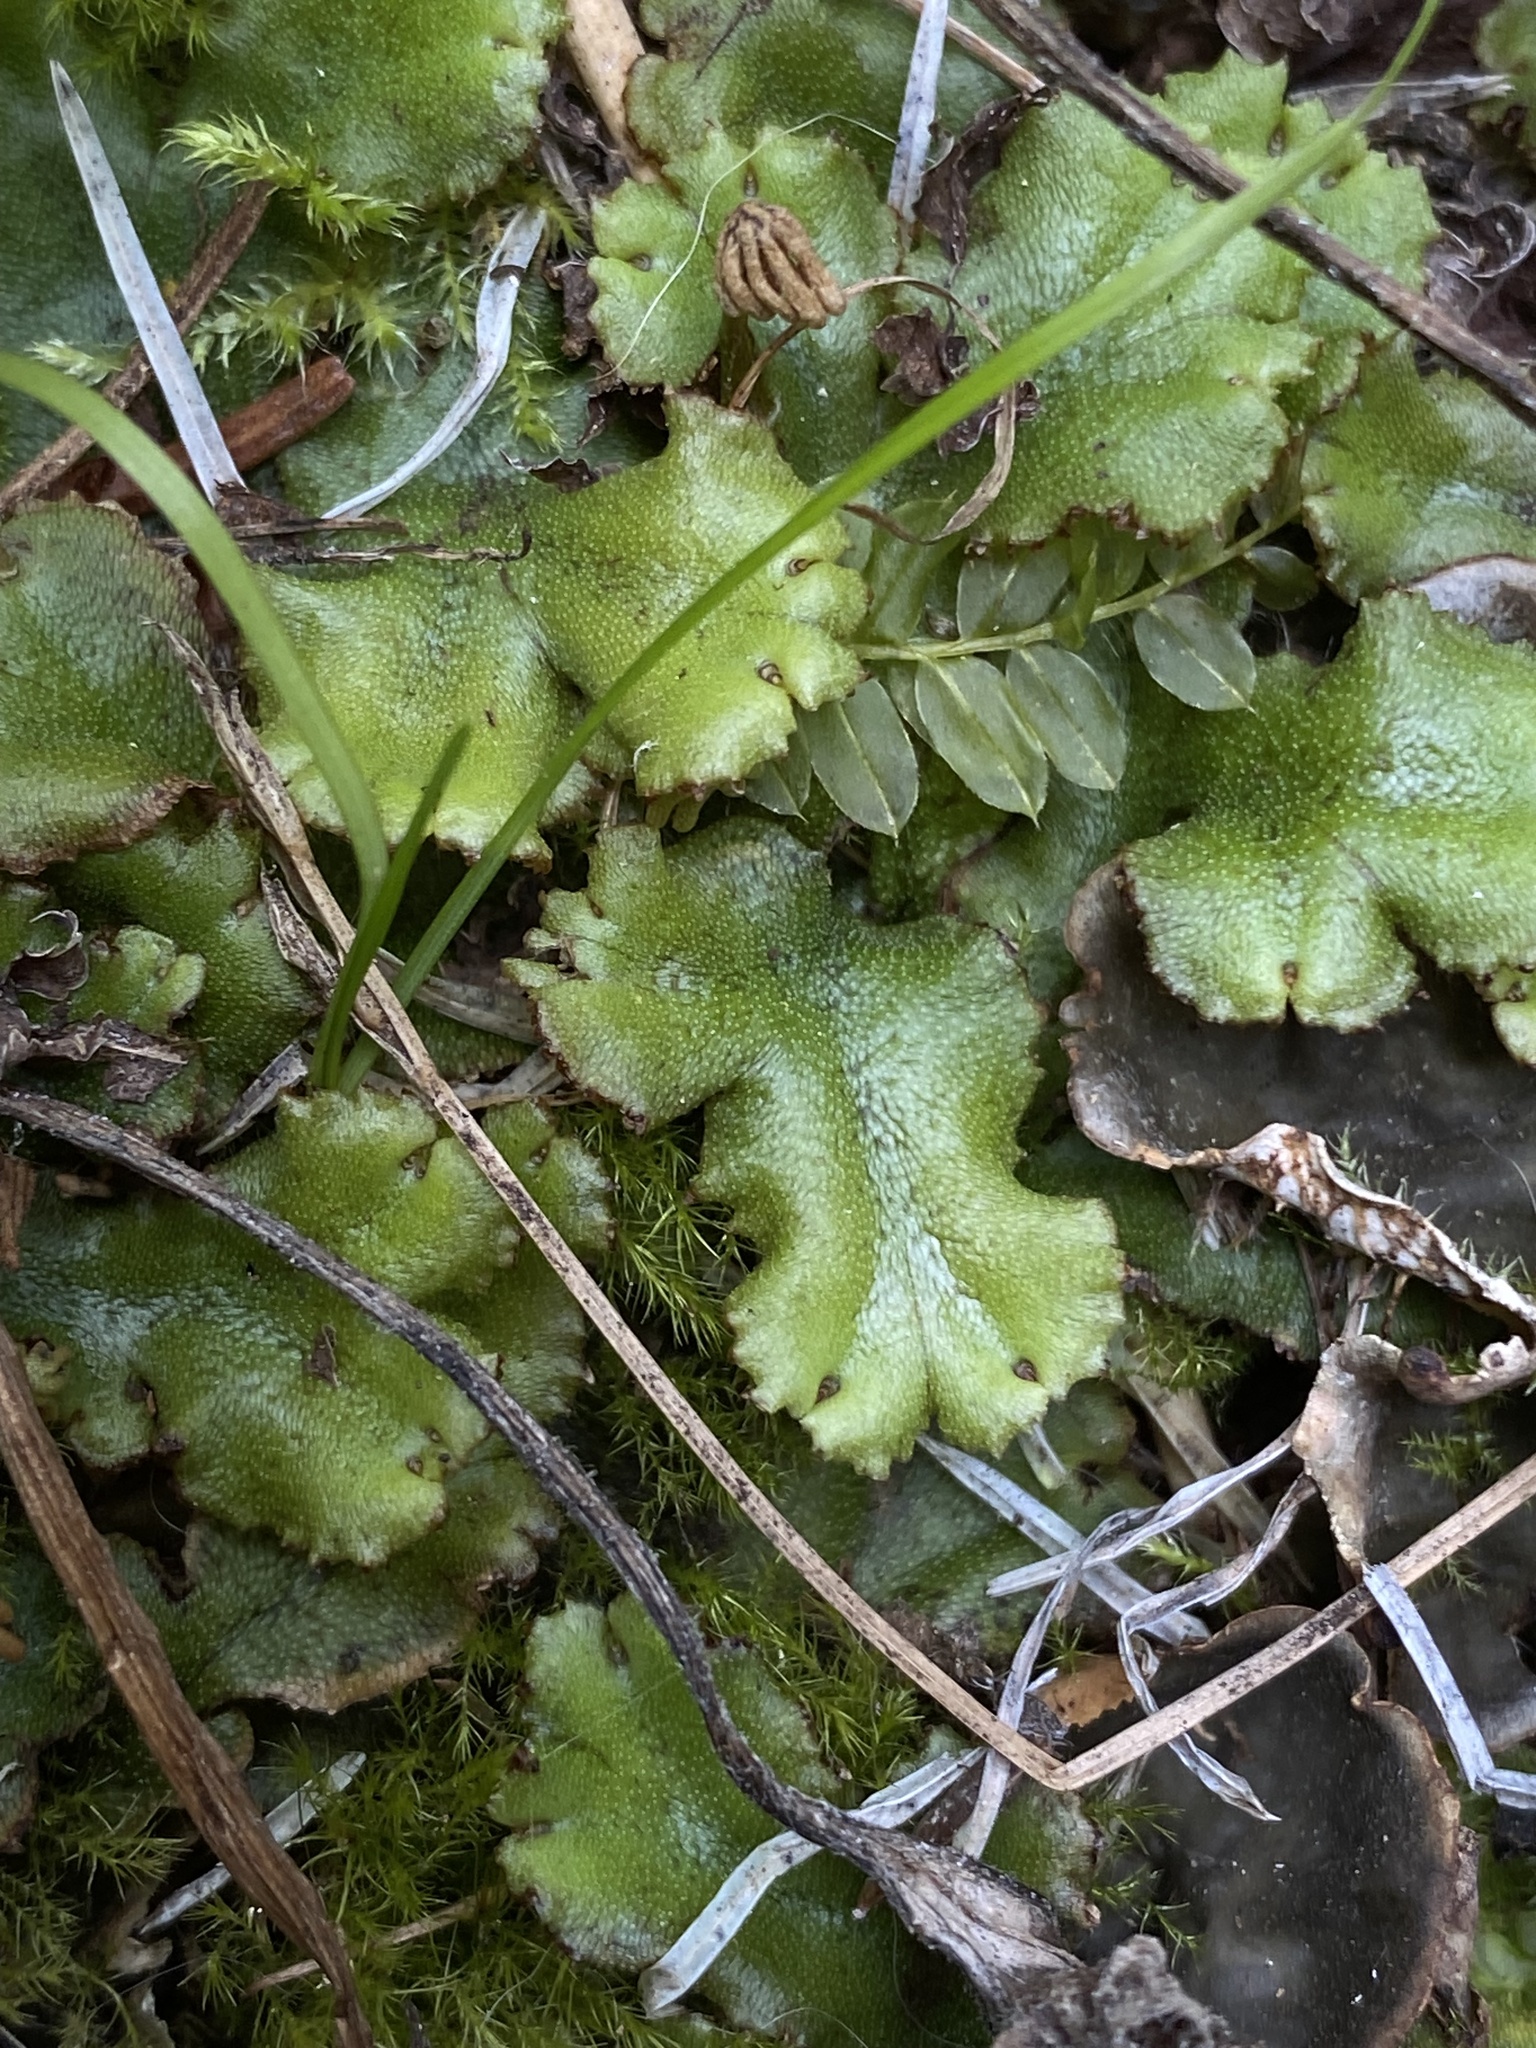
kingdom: Plantae
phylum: Marchantiophyta
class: Marchantiopsida
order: Marchantiales
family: Marchantiaceae
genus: Marchantia
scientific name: Marchantia polymorpha
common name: Common liverwort
